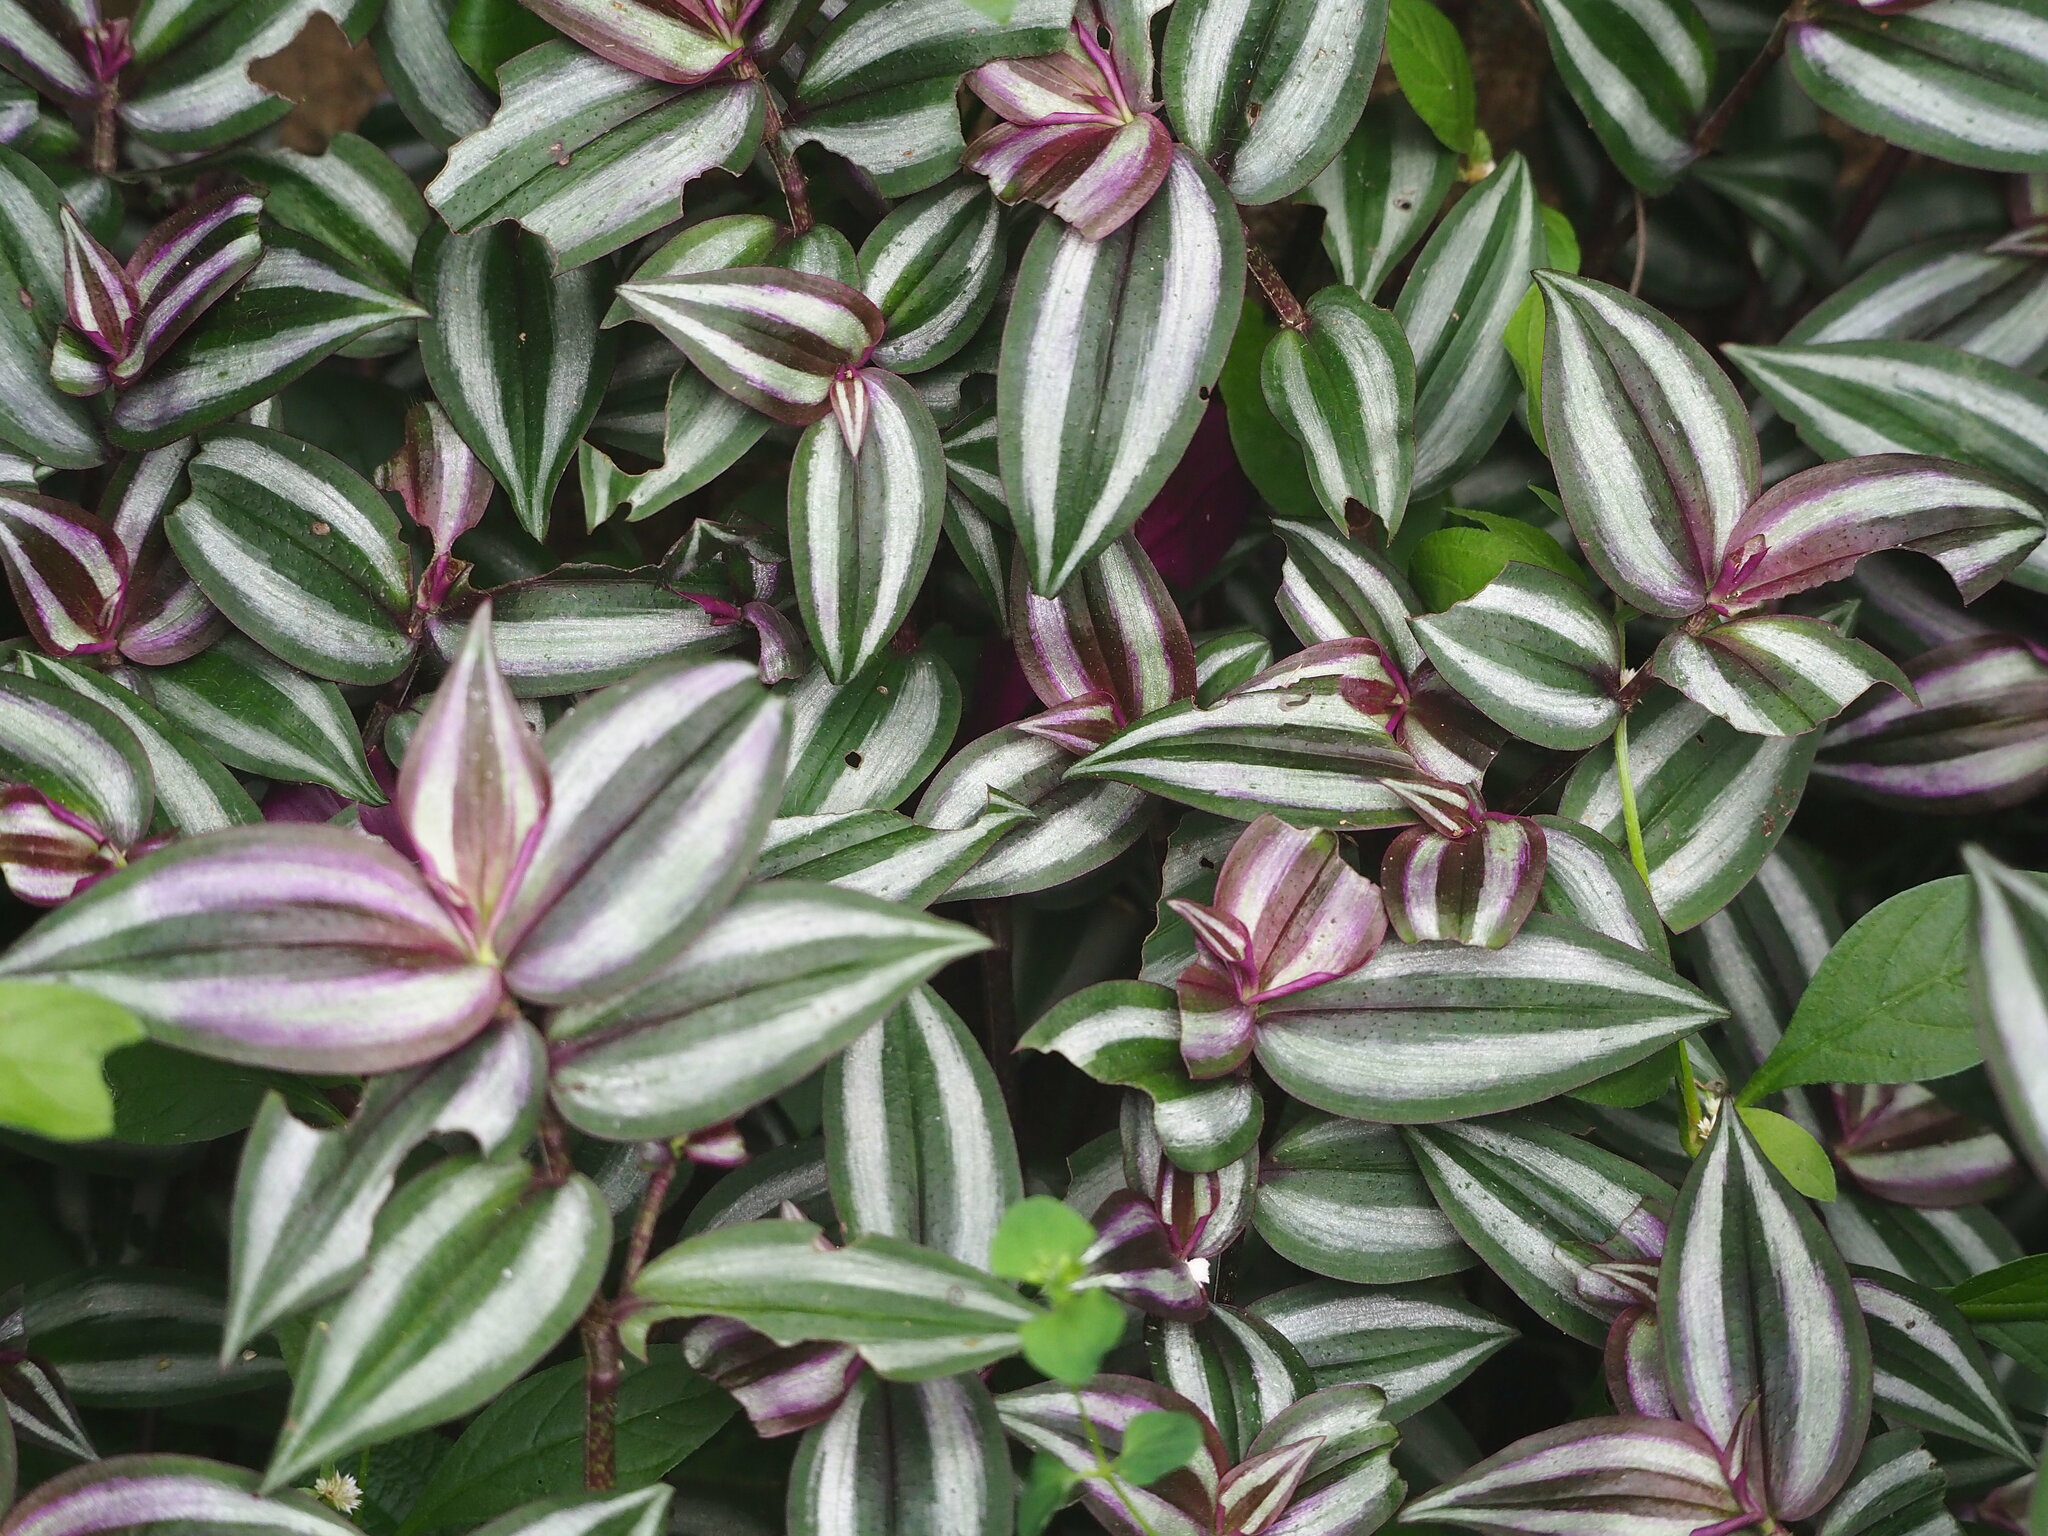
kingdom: Plantae
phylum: Tracheophyta
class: Liliopsida
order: Commelinales
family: Commelinaceae
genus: Tradescantia
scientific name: Tradescantia zebrina
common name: Inchplant
